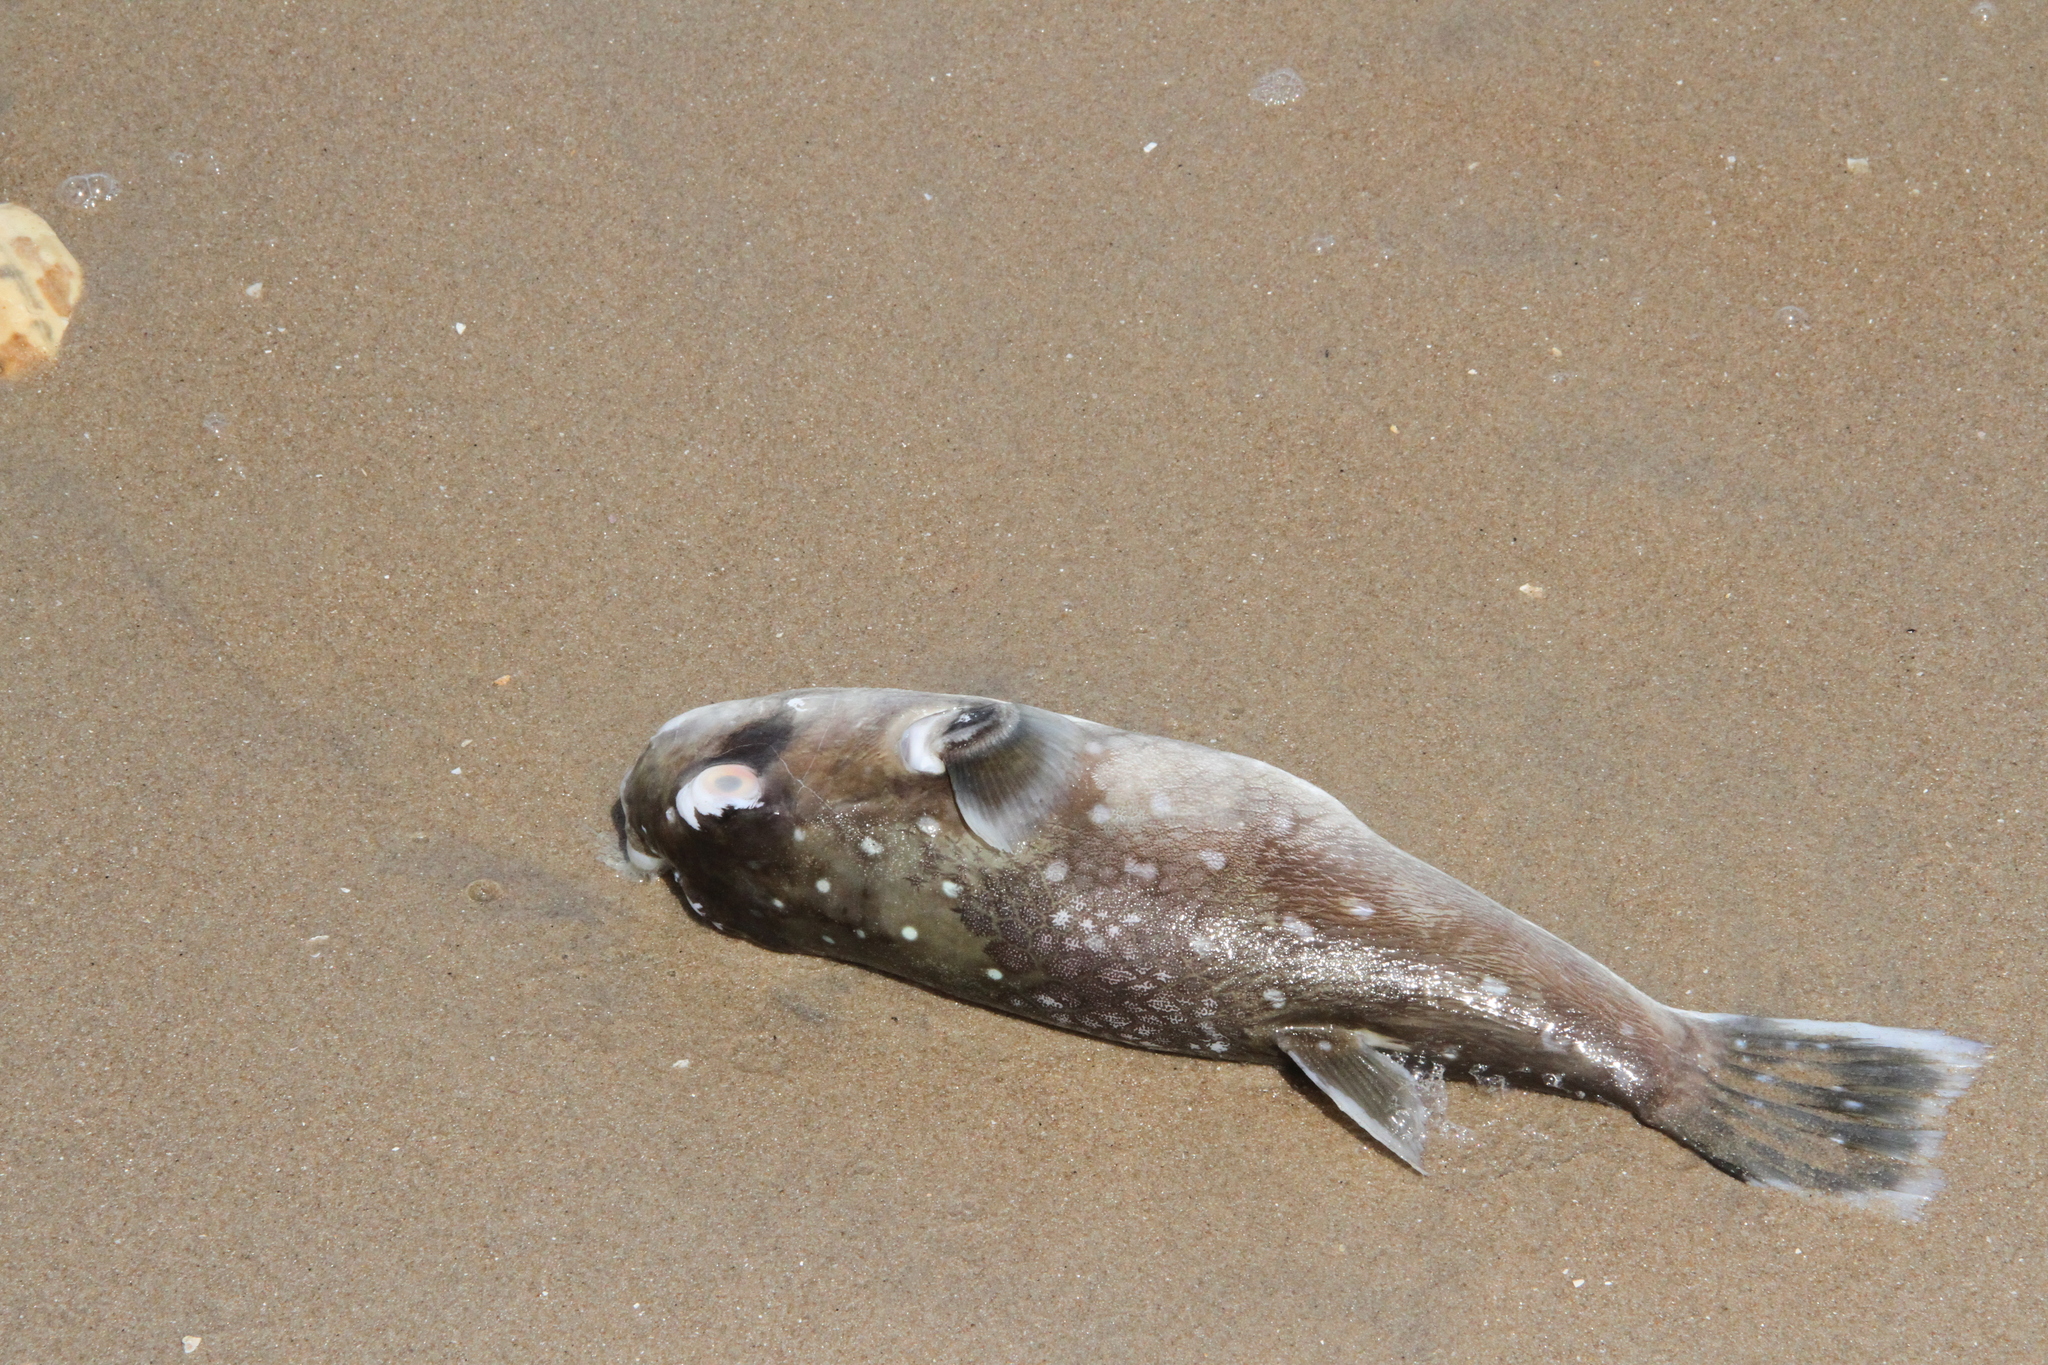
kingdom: Animalia
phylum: Chordata
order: Tetraodontiformes
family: Tetraodontidae
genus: Ephippion
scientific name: Ephippion guttifer
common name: Common puffer
